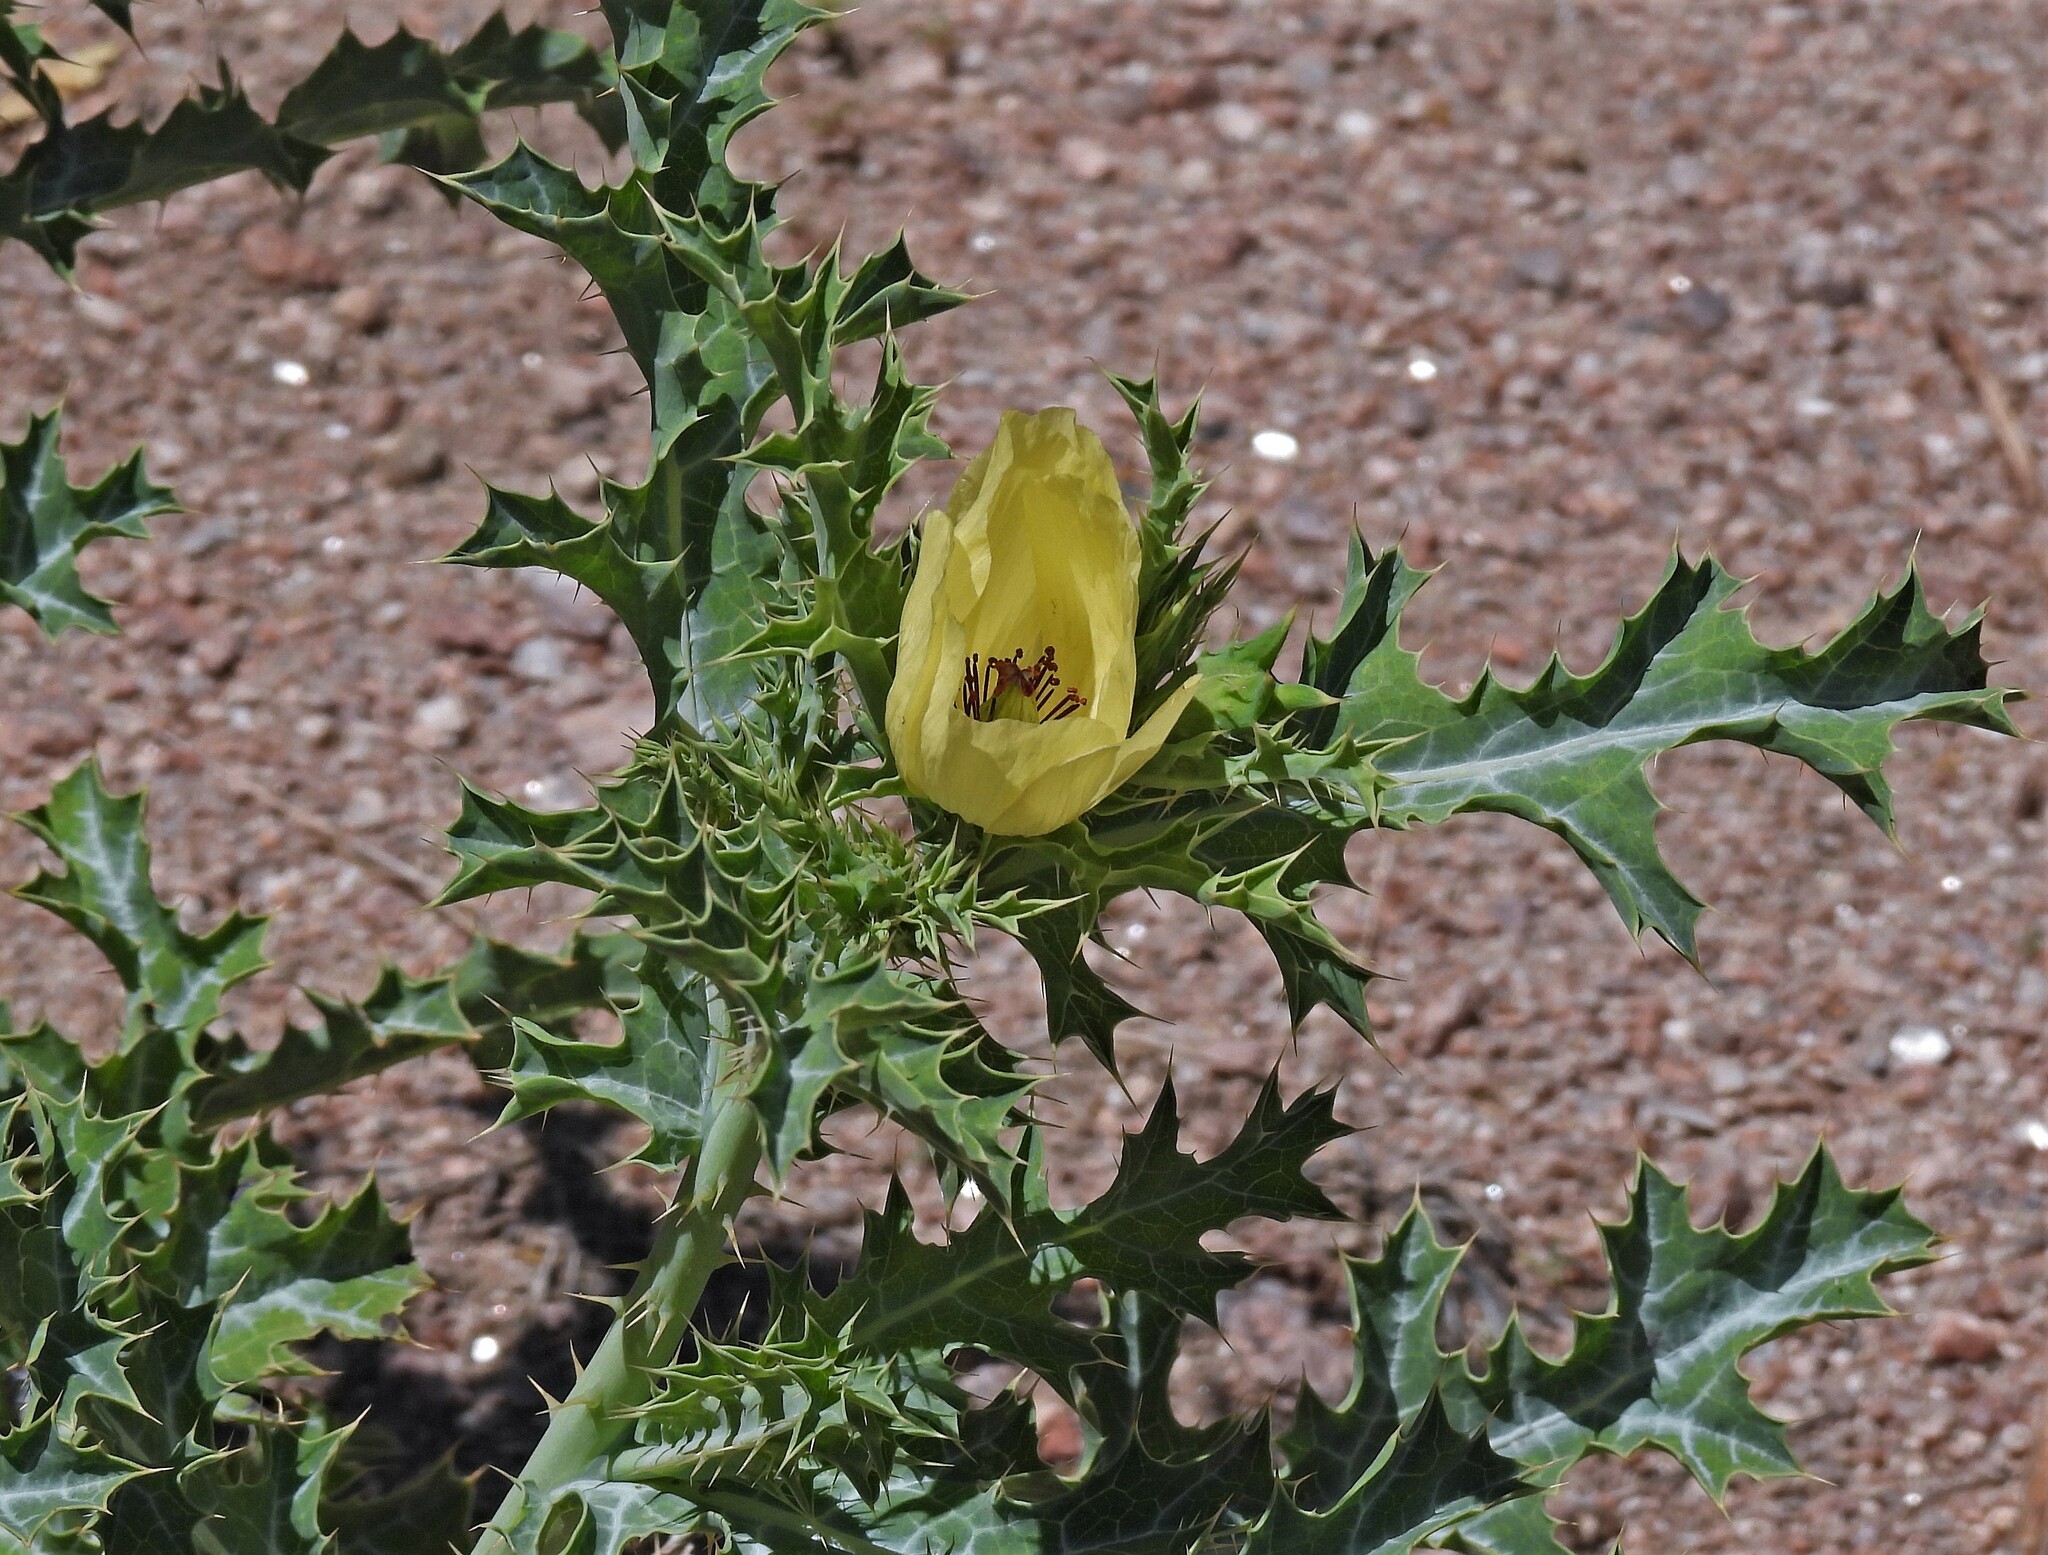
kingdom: Plantae
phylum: Tracheophyta
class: Magnoliopsida
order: Ranunculales
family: Papaveraceae
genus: Argemone
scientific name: Argemone subfusiformis
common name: American-poppy
